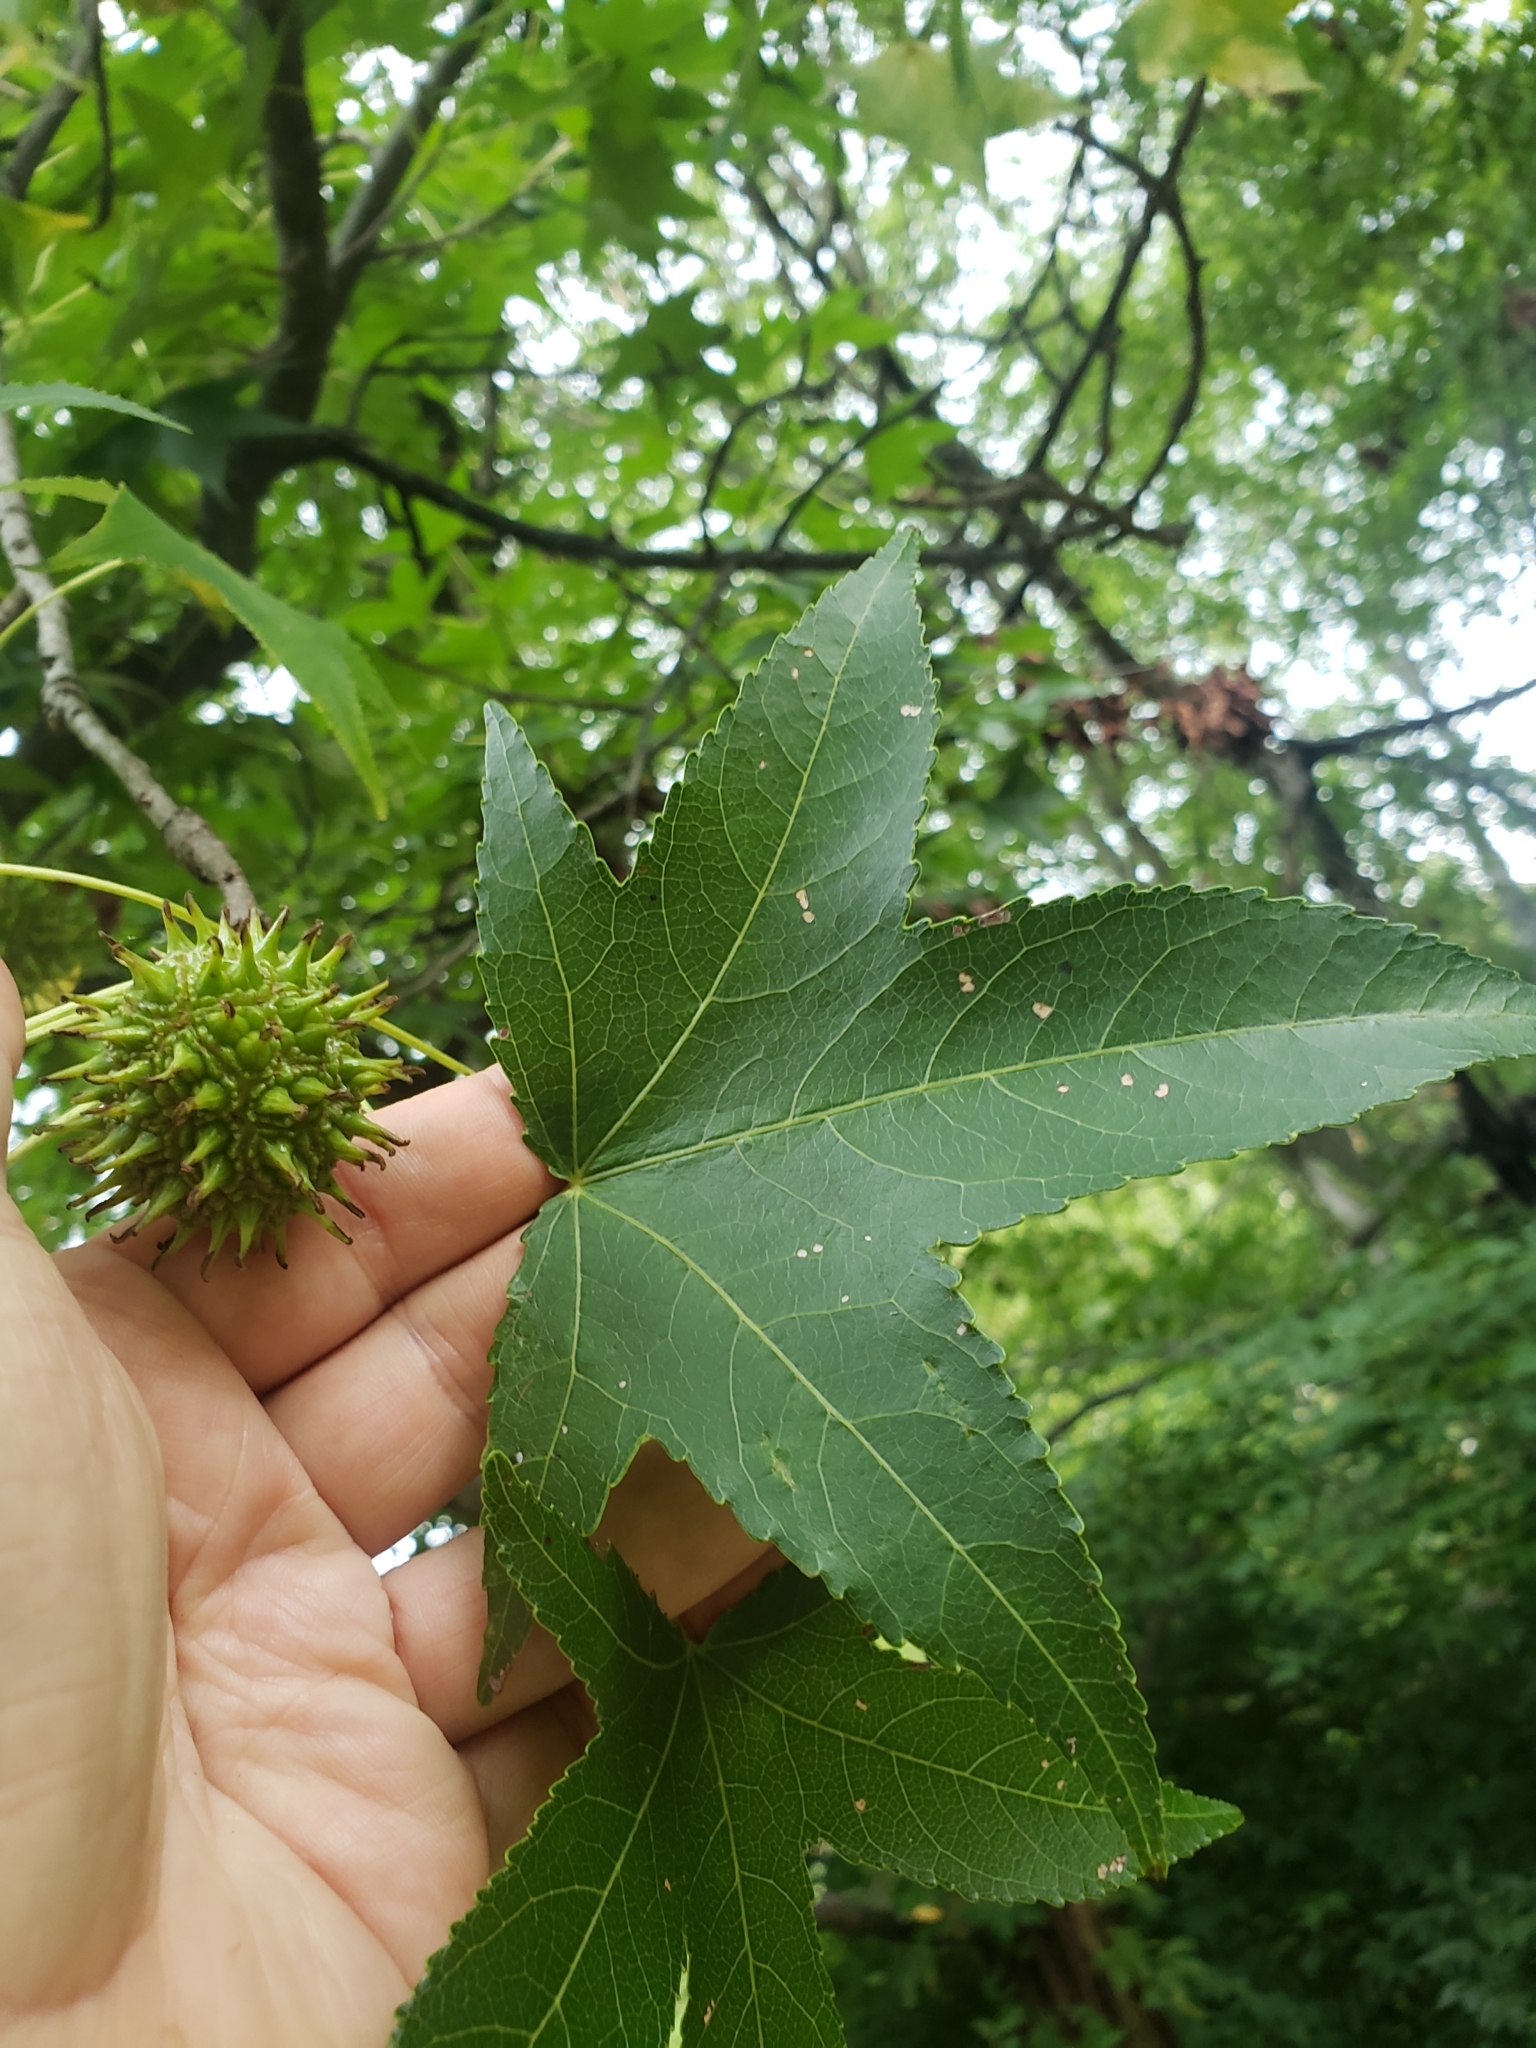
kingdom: Plantae
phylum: Tracheophyta
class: Magnoliopsida
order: Saxifragales
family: Altingiaceae
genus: Liquidambar
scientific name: Liquidambar styraciflua
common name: Sweet gum
